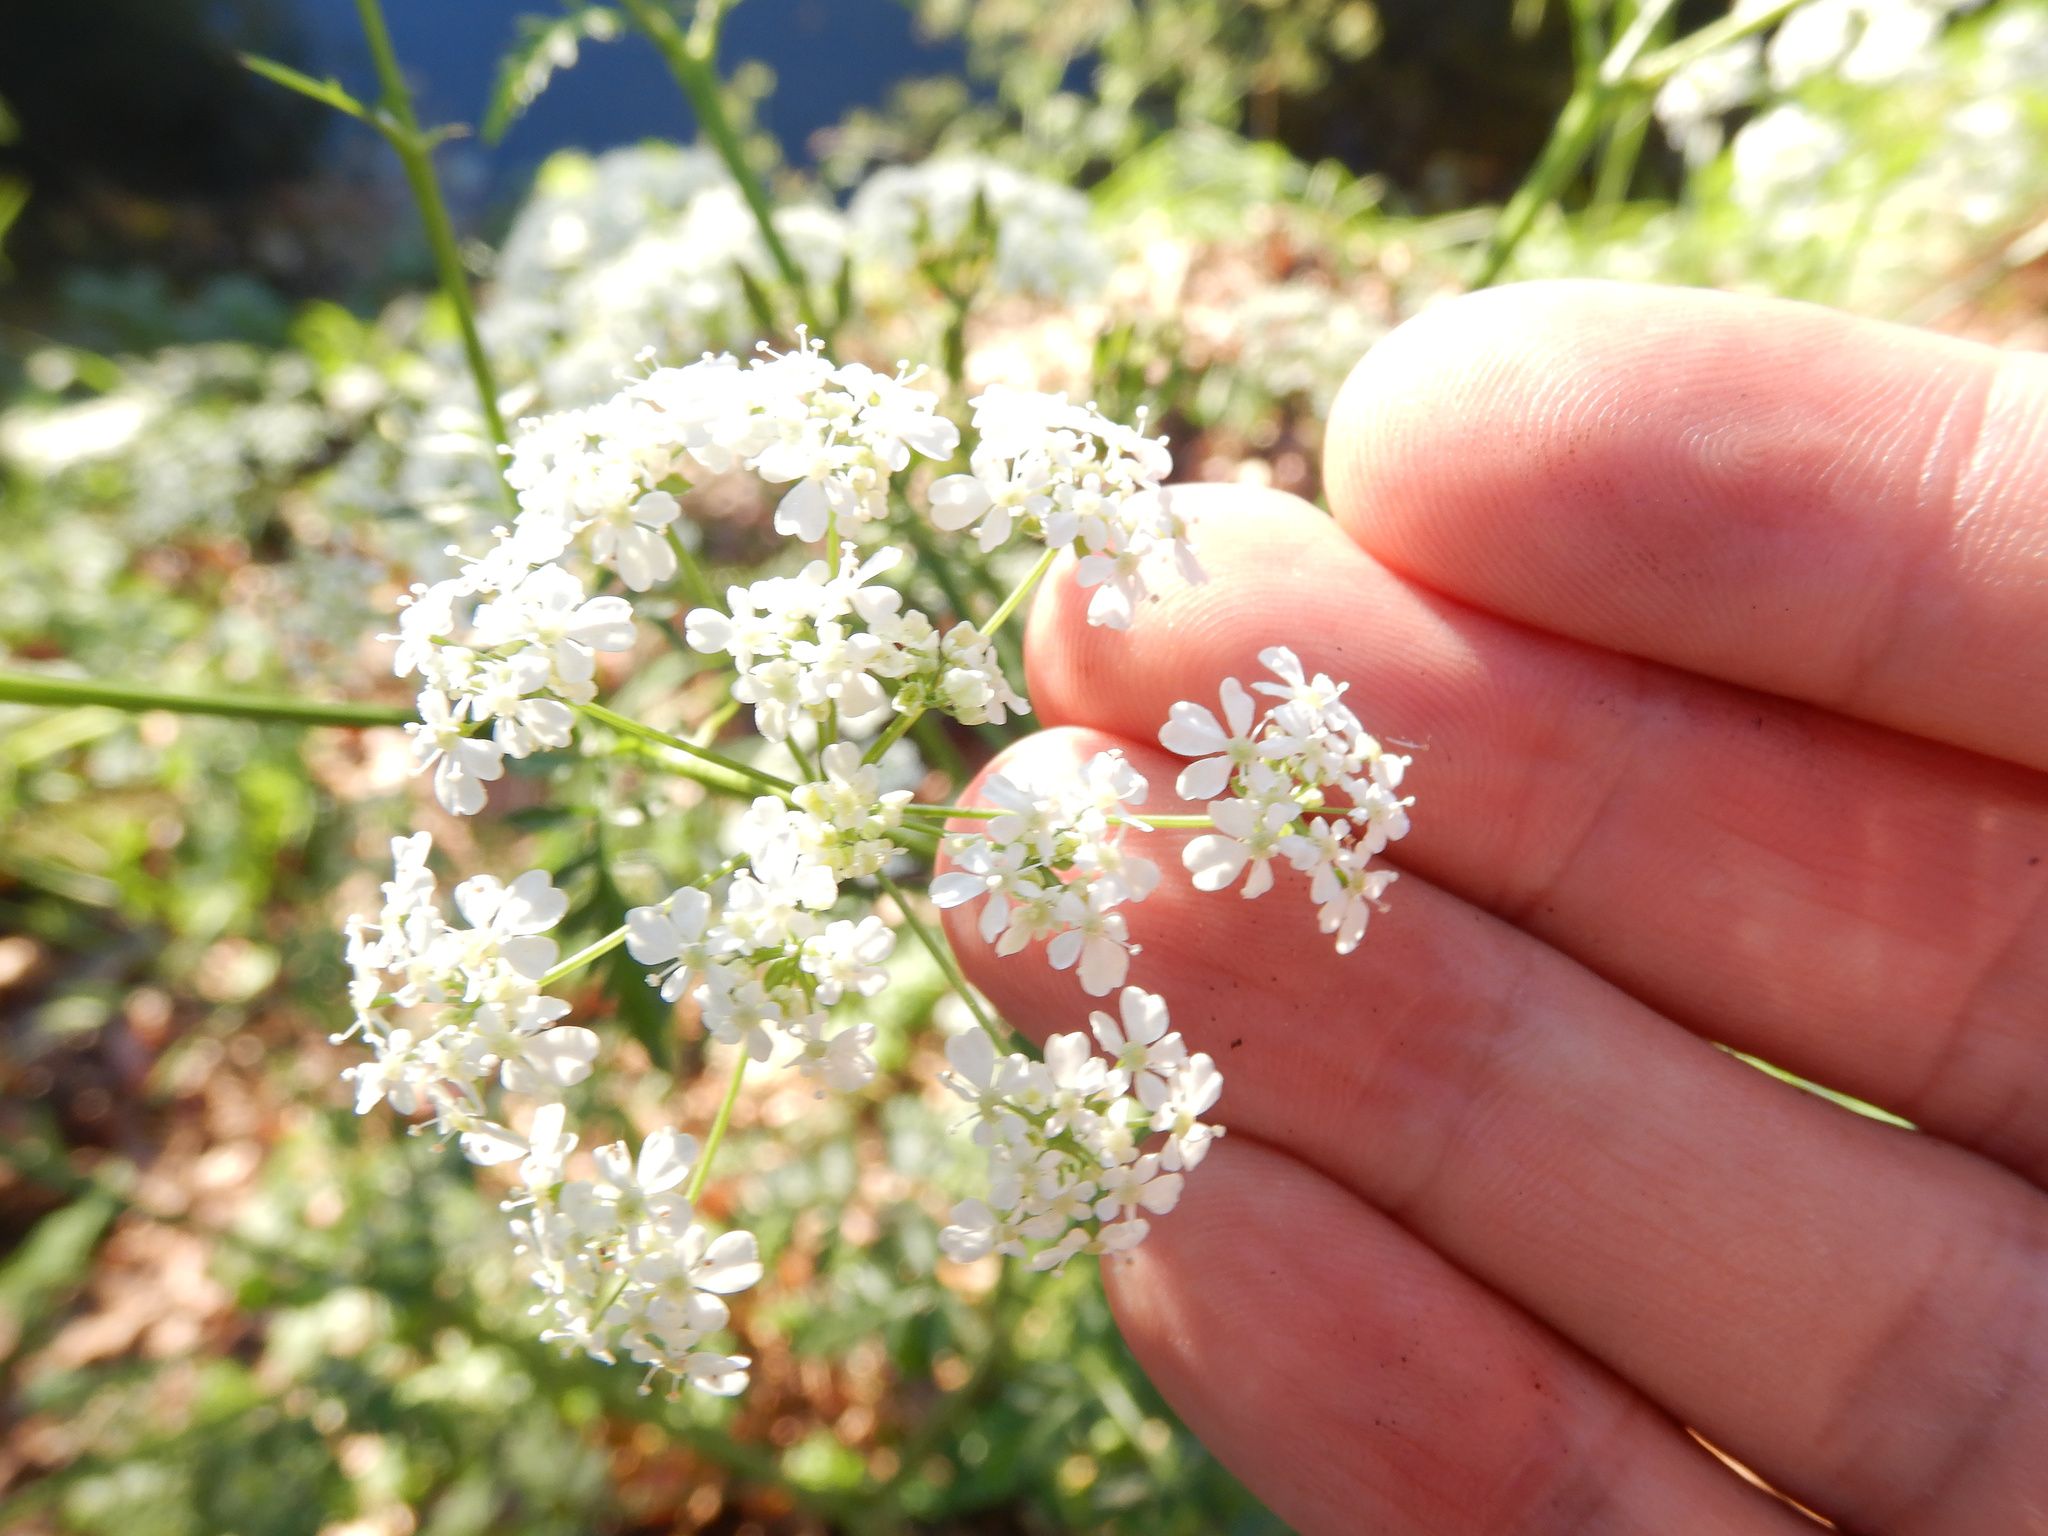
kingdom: Plantae
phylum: Tracheophyta
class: Magnoliopsida
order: Apiales
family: Apiaceae
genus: Anthriscus
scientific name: Anthriscus sylvestris
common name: Cow parsley
